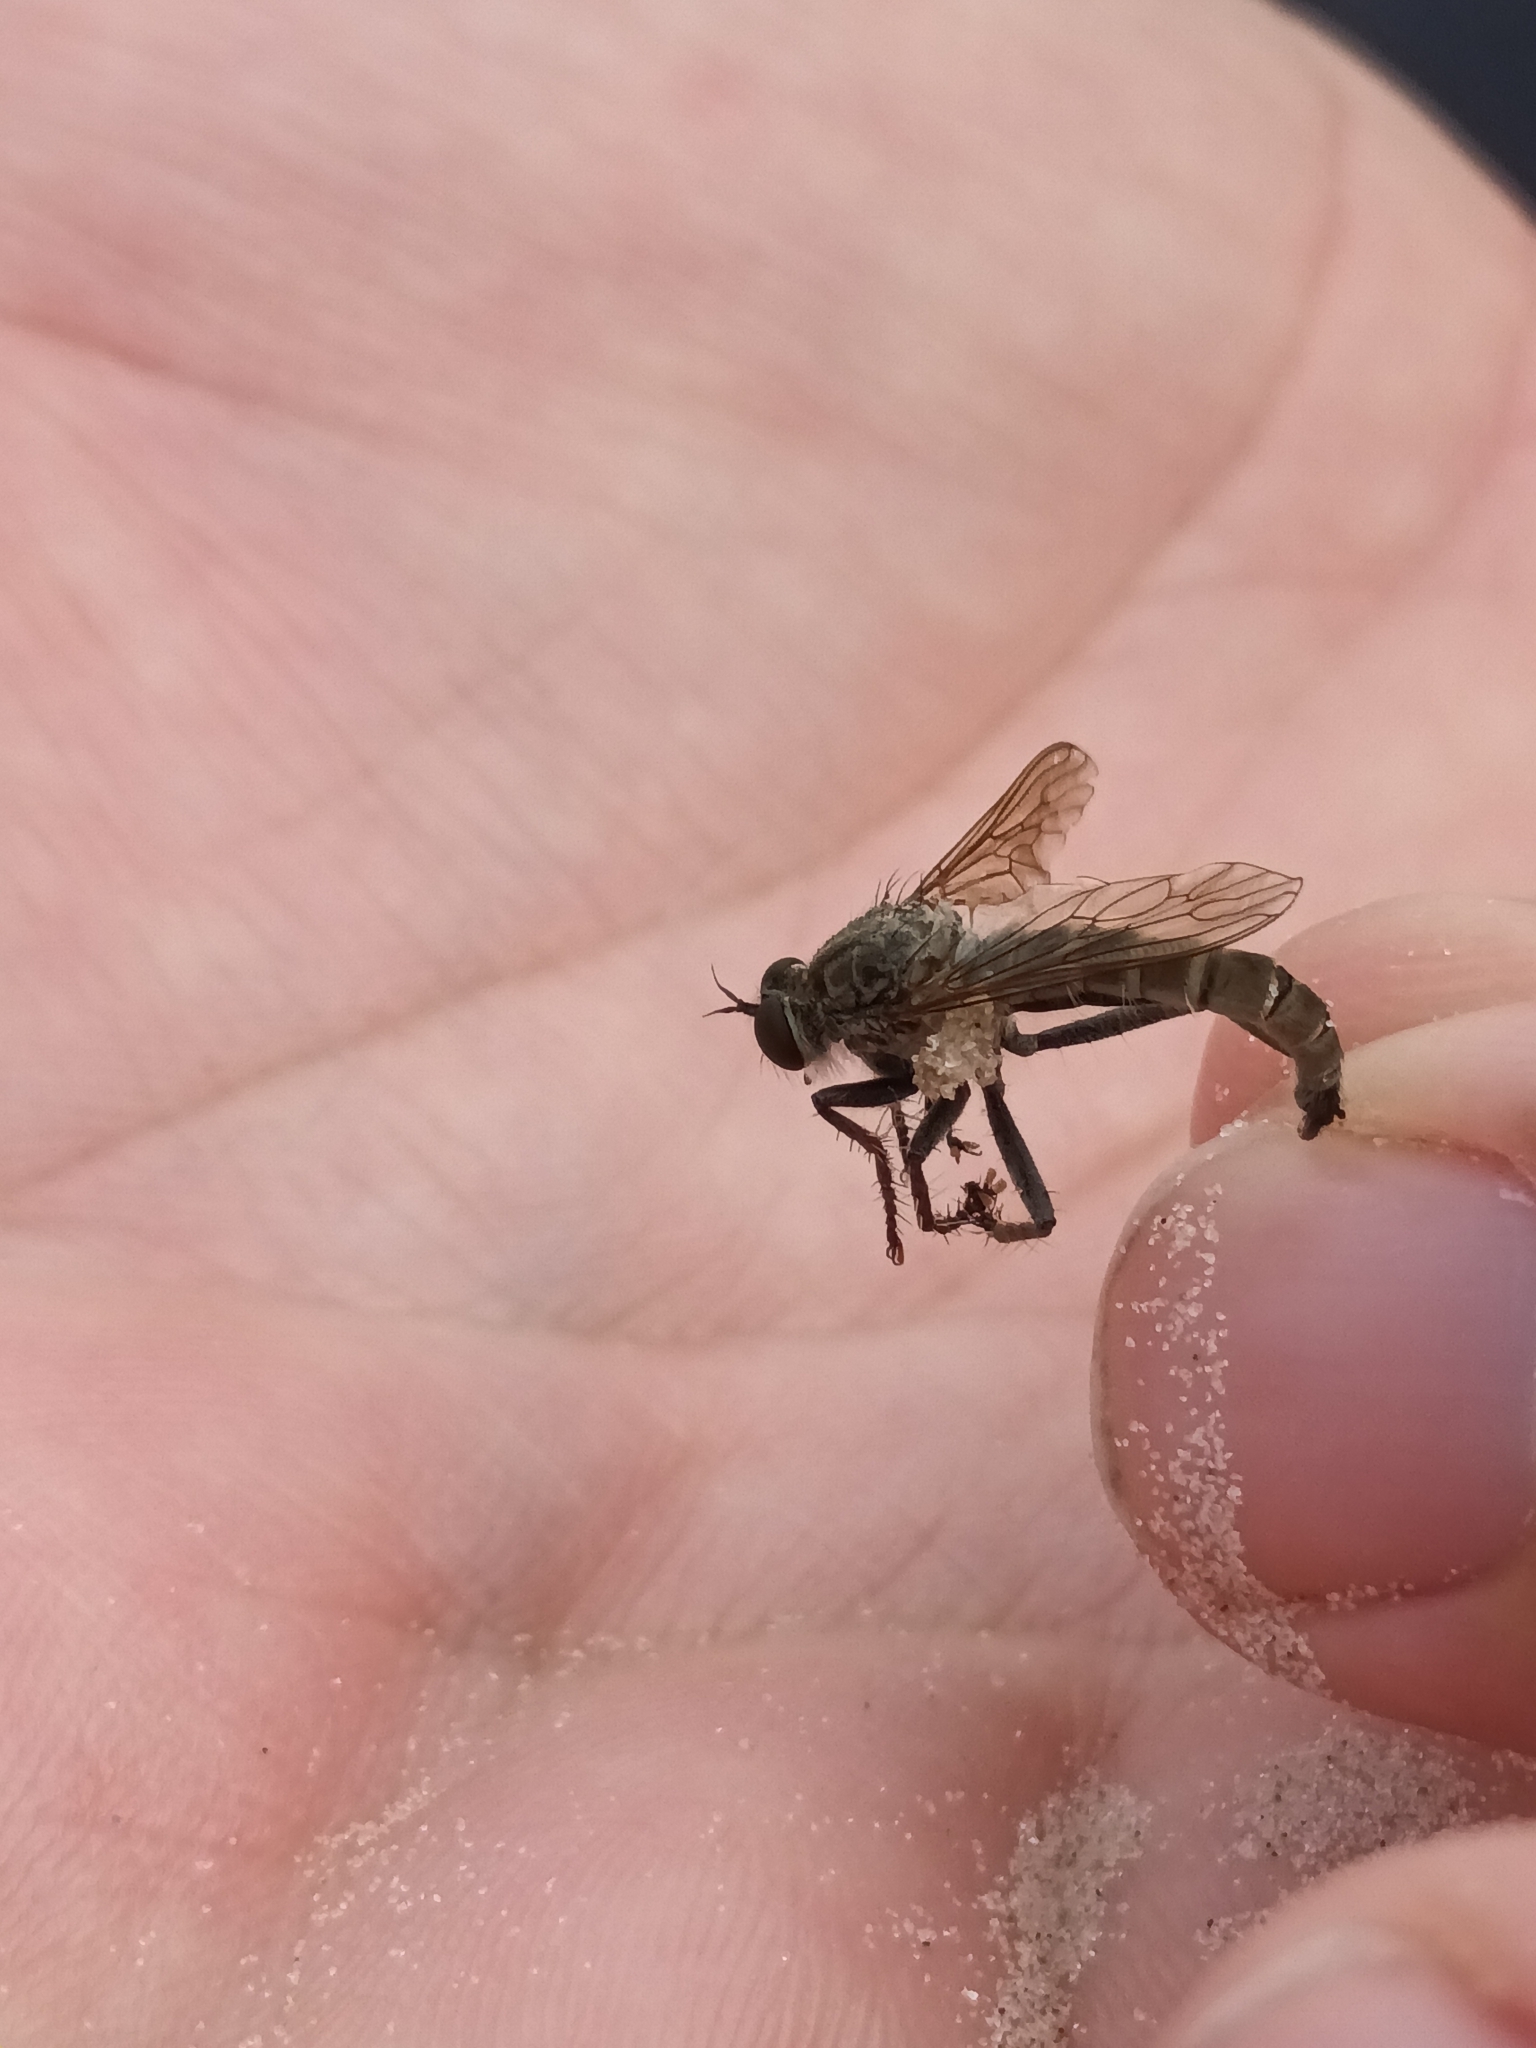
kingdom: Animalia
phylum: Arthropoda
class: Insecta
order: Diptera
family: Asilidae
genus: Philonicus
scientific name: Philonicus albiceps
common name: Dune robberfly
